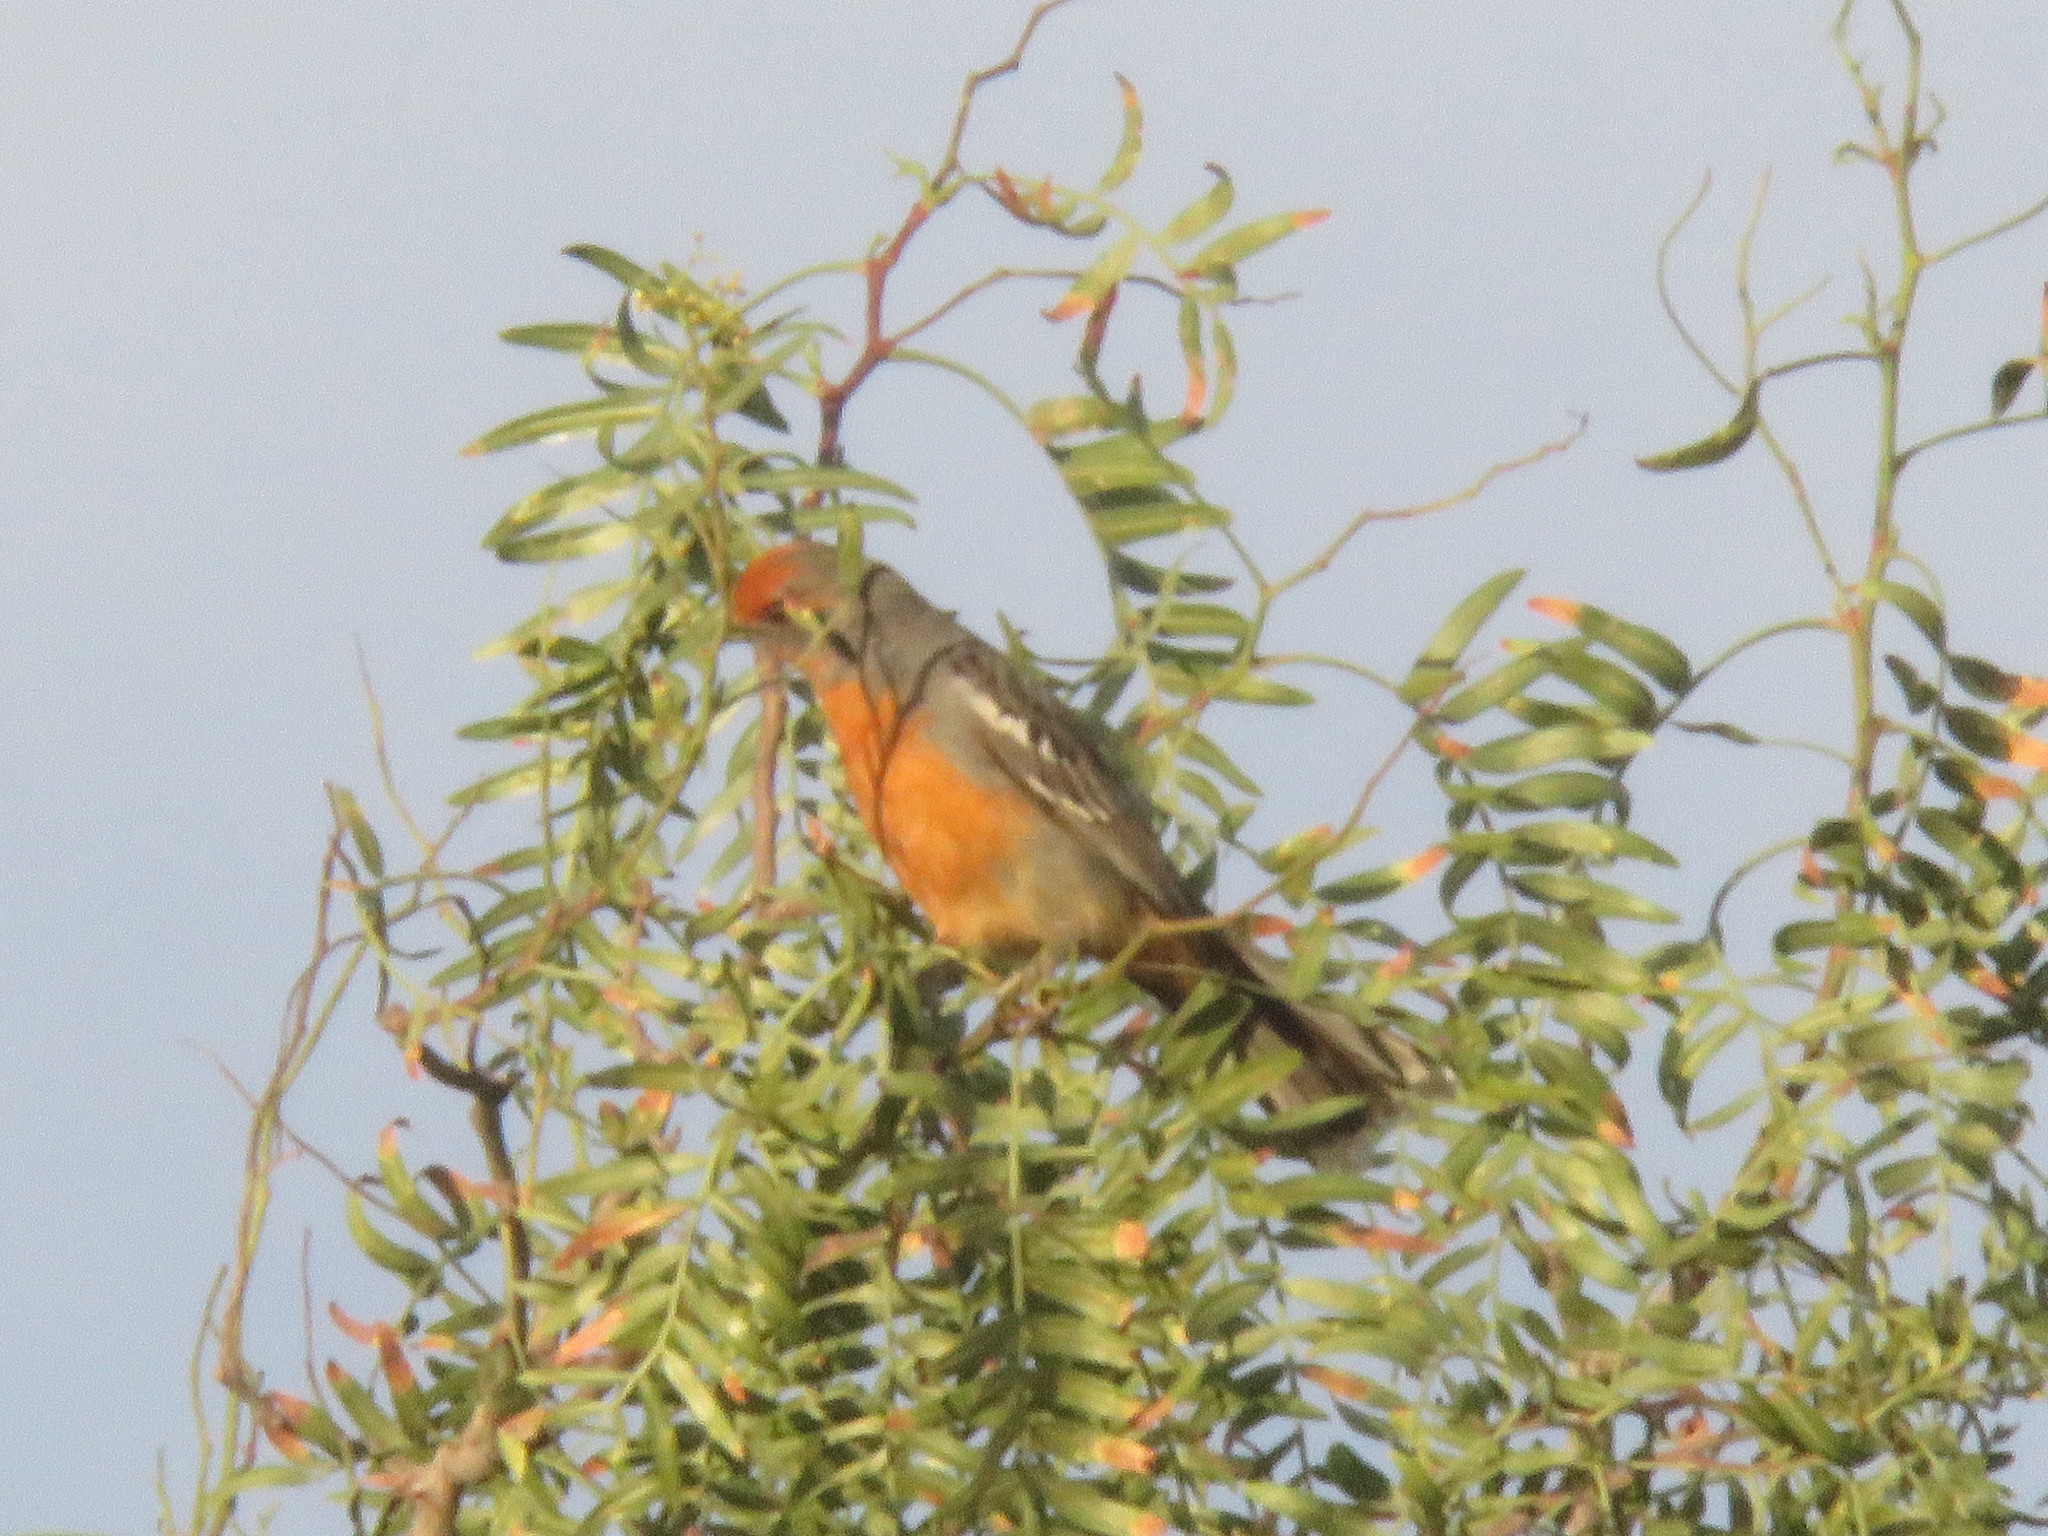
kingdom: Animalia
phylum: Chordata
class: Aves
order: Passeriformes
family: Cotingidae
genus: Phytotoma
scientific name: Phytotoma rutila
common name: White-tipped plantcutter
